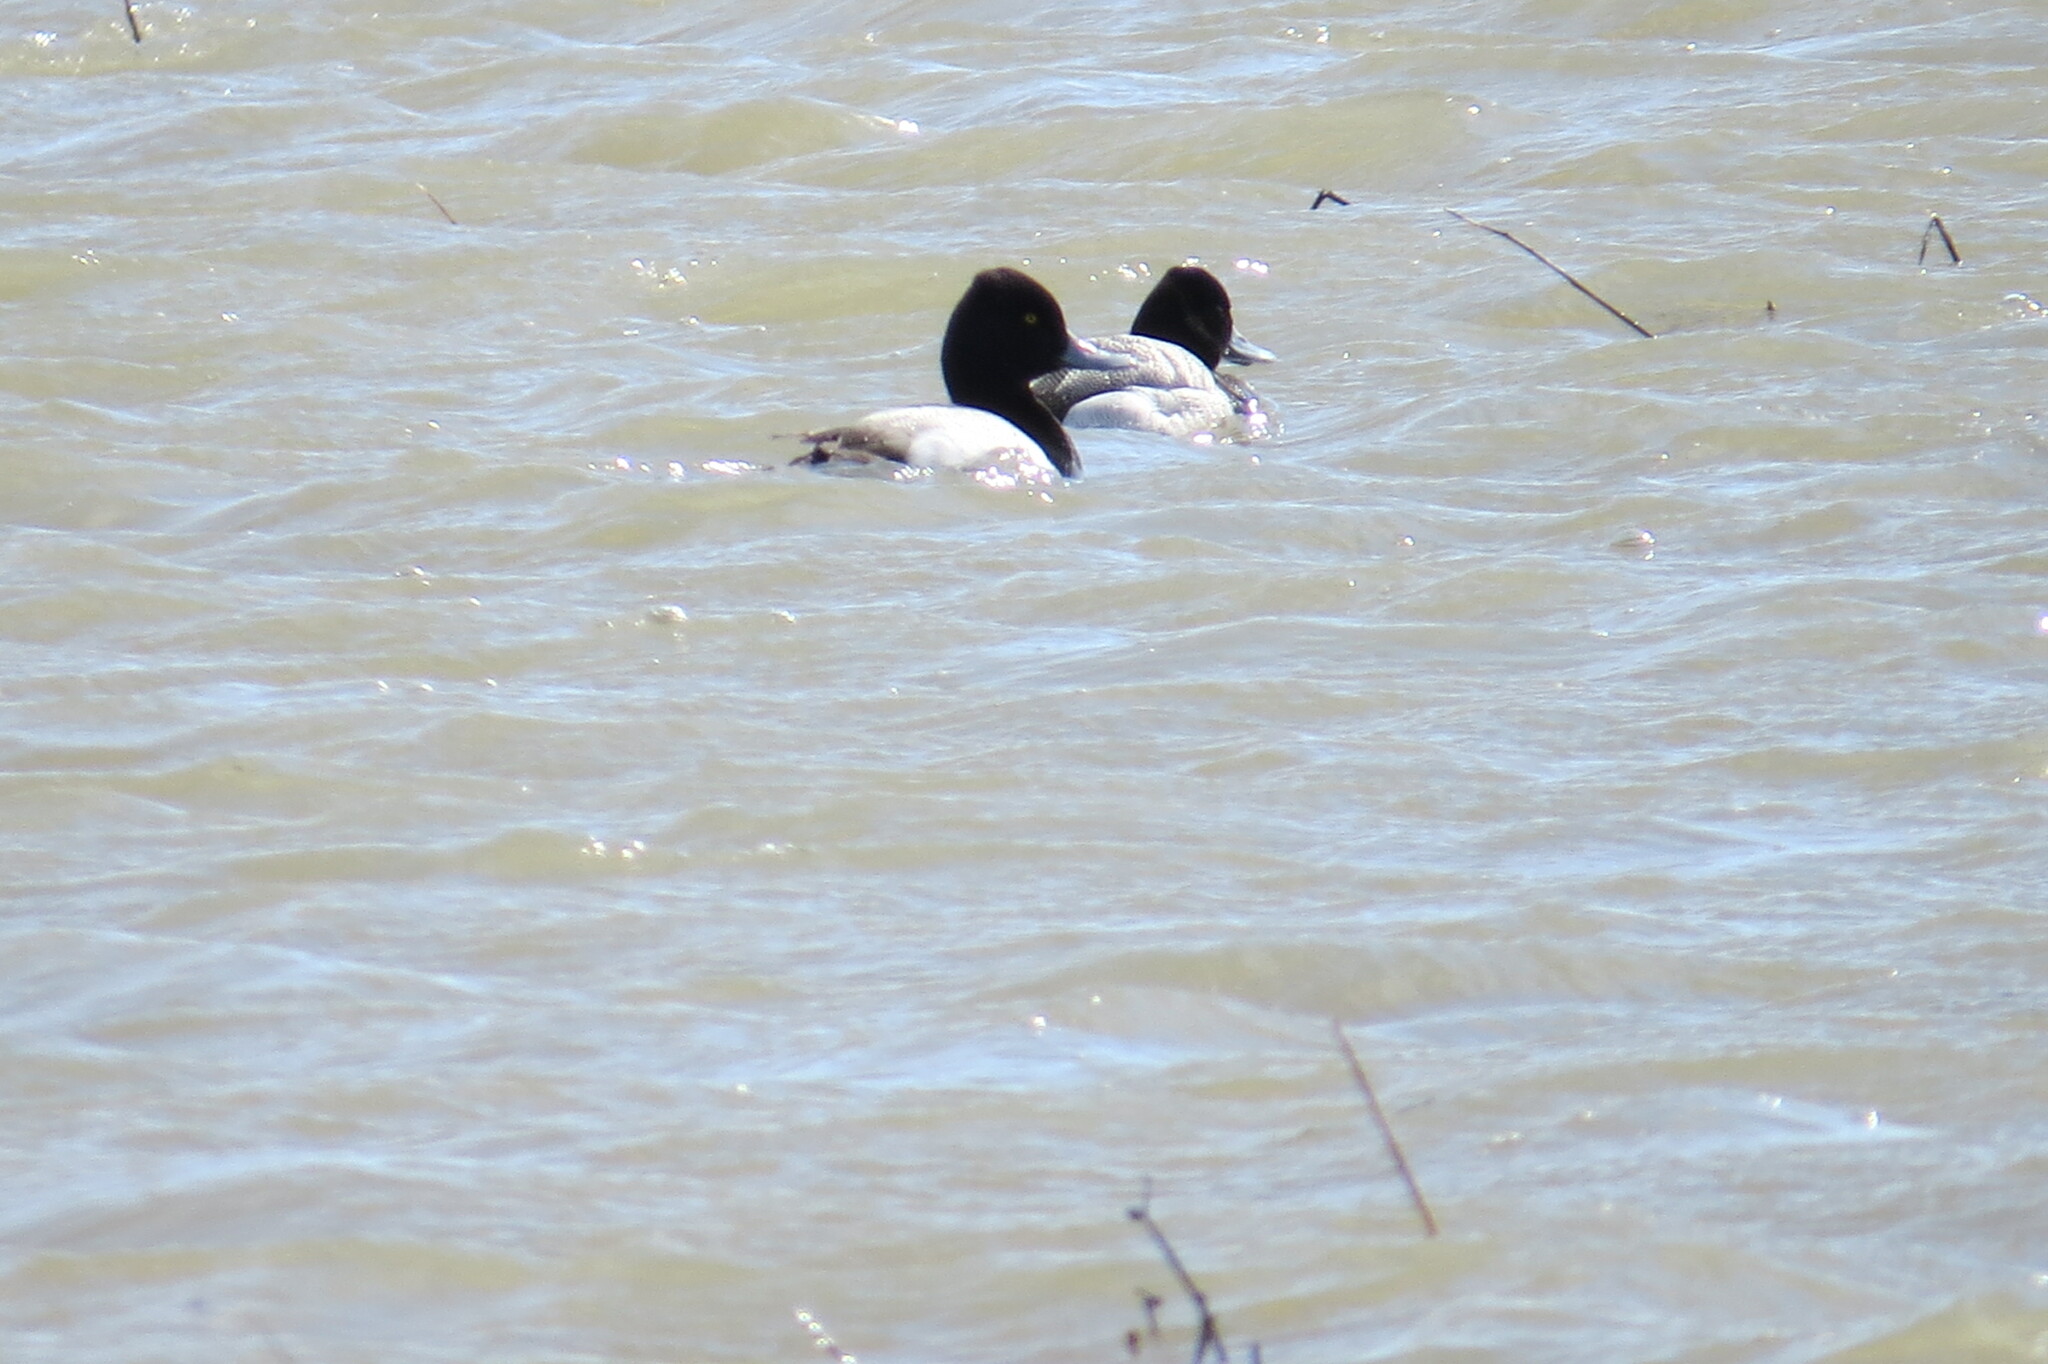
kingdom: Animalia
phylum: Chordata
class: Aves
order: Anseriformes
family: Anatidae
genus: Aythya
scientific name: Aythya affinis
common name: Lesser scaup
